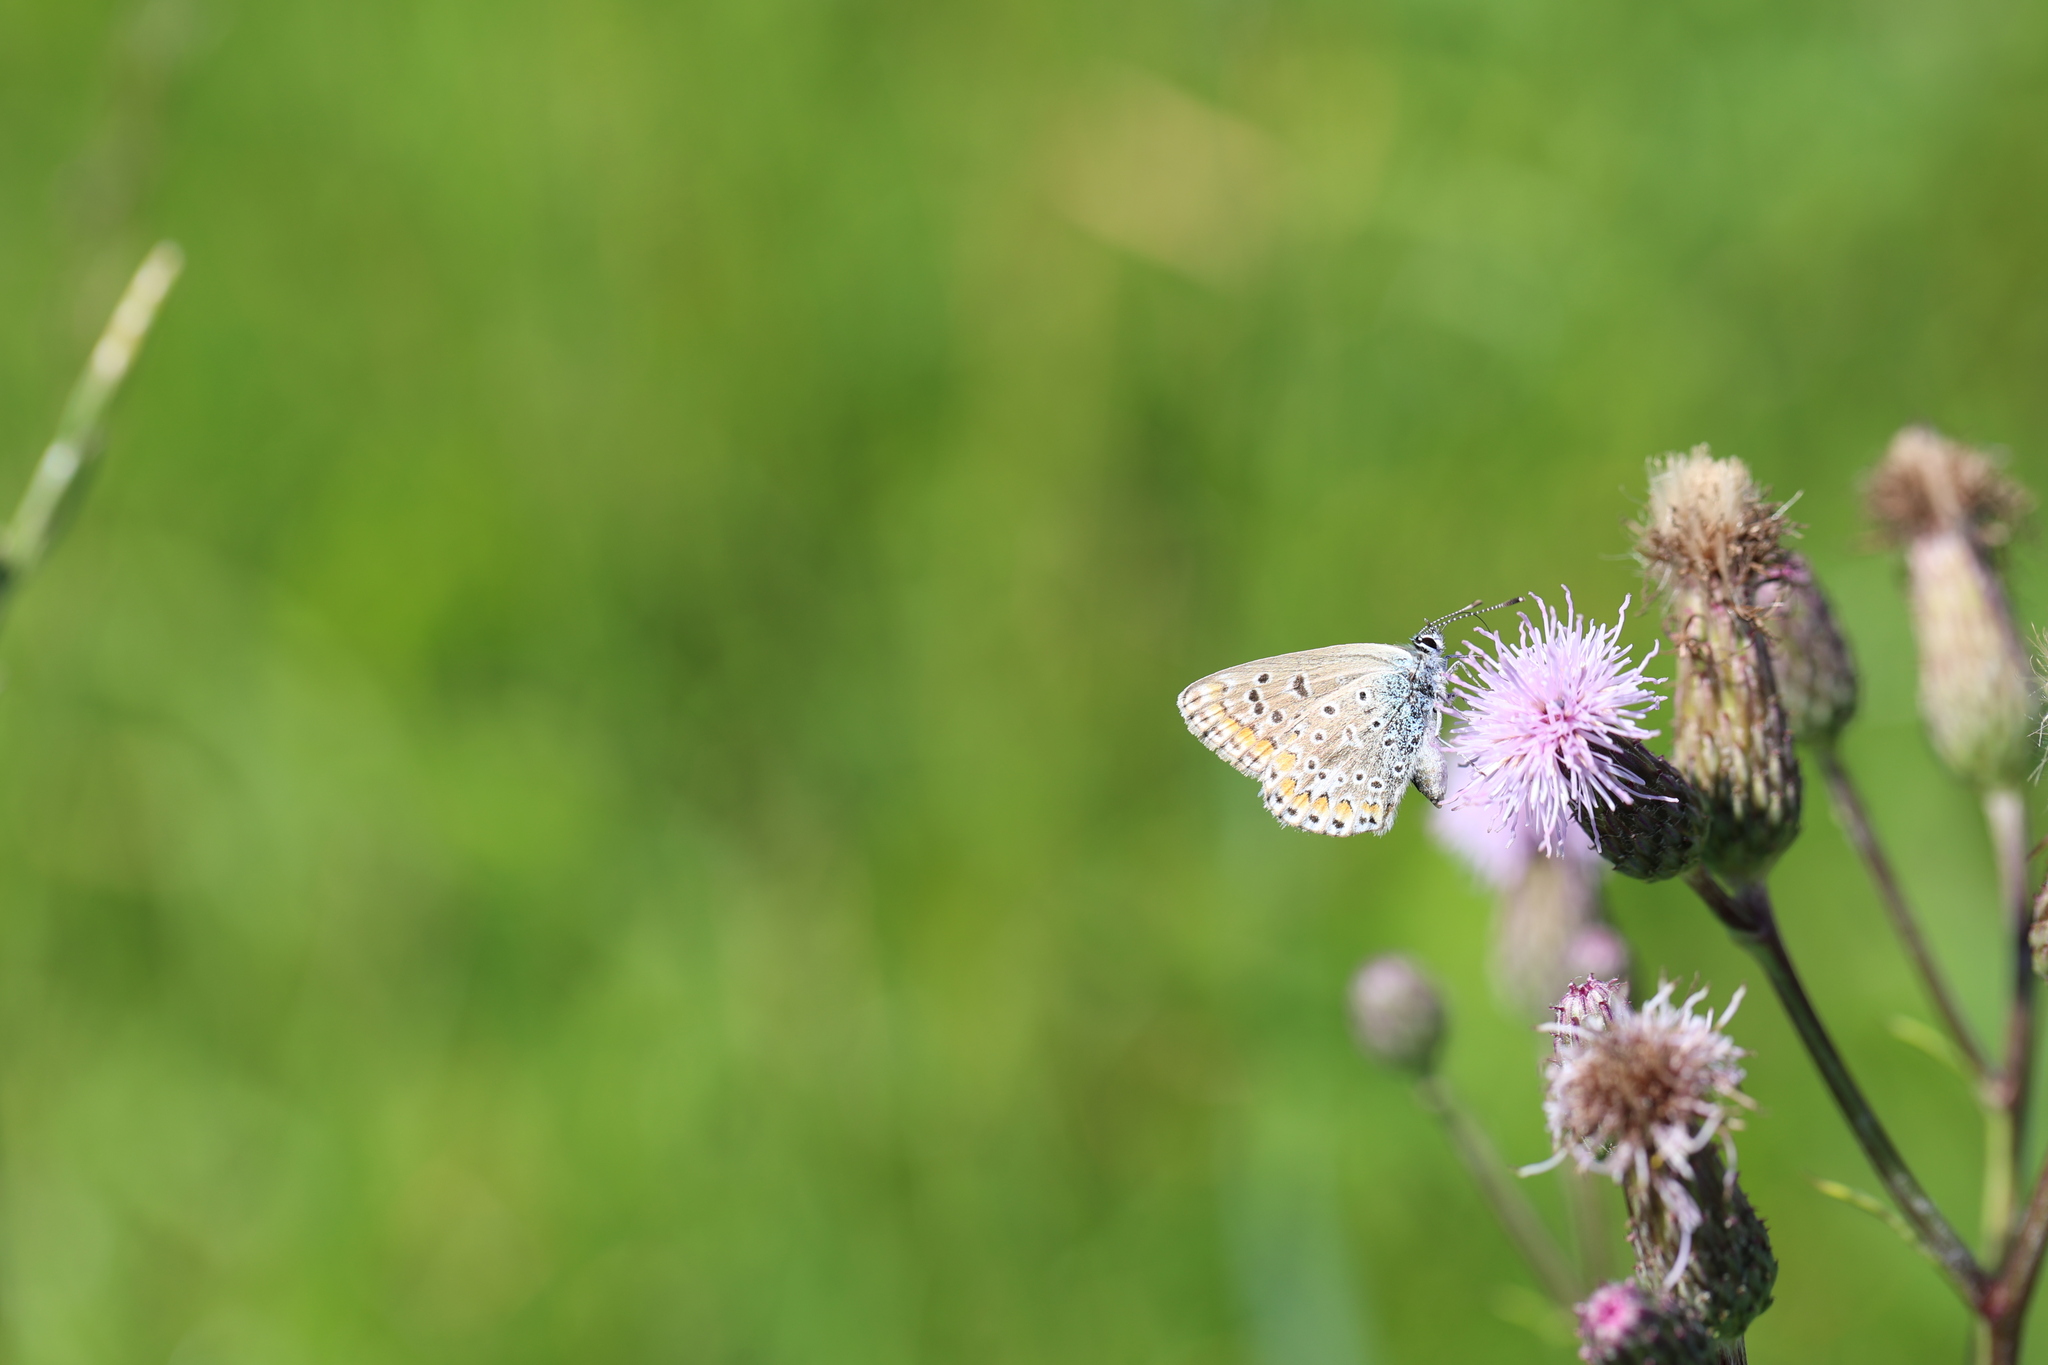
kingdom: Animalia
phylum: Arthropoda
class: Insecta
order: Lepidoptera
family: Lycaenidae
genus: Polyommatus
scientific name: Polyommatus icarus
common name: Common blue
